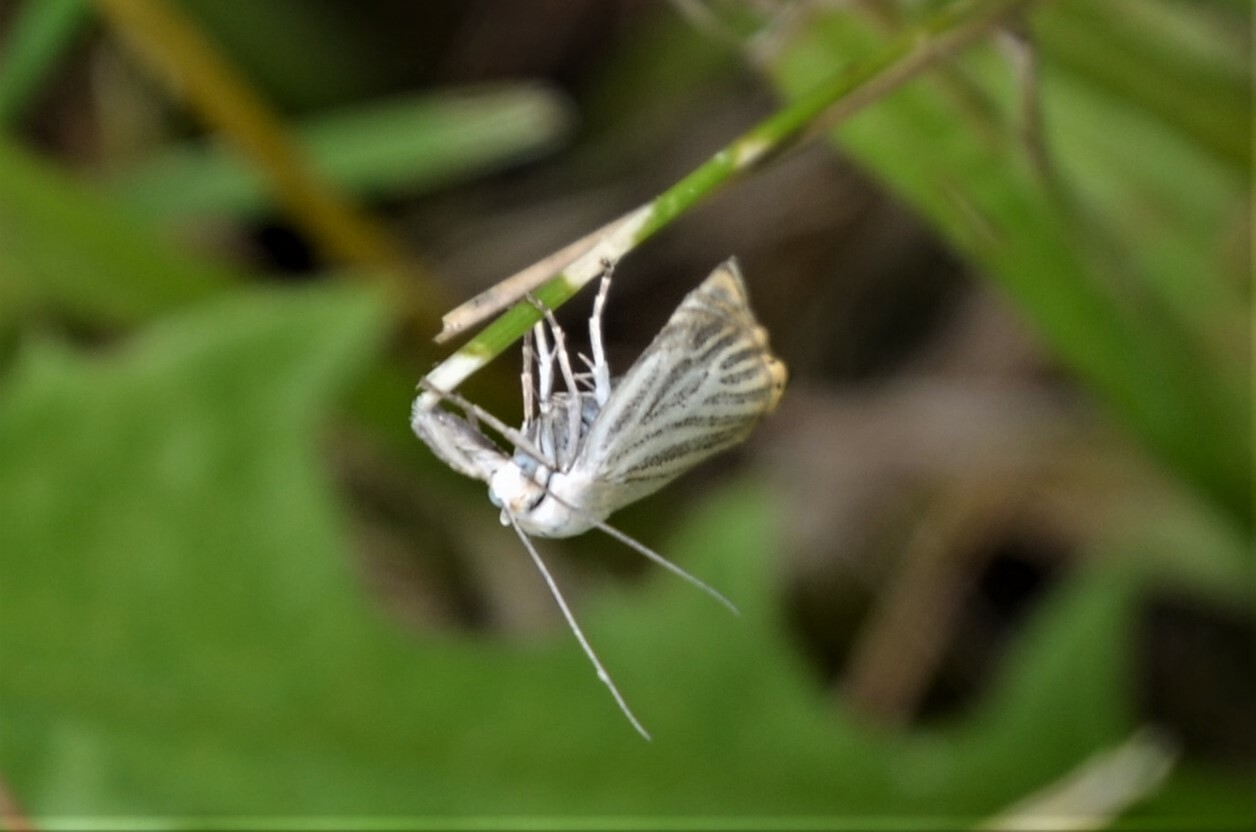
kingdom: Animalia
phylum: Arthropoda
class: Insecta
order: Lepidoptera
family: Crambidae
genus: Chrysoteuchia
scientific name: Chrysoteuchia culmella
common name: Garden grass-veneer
